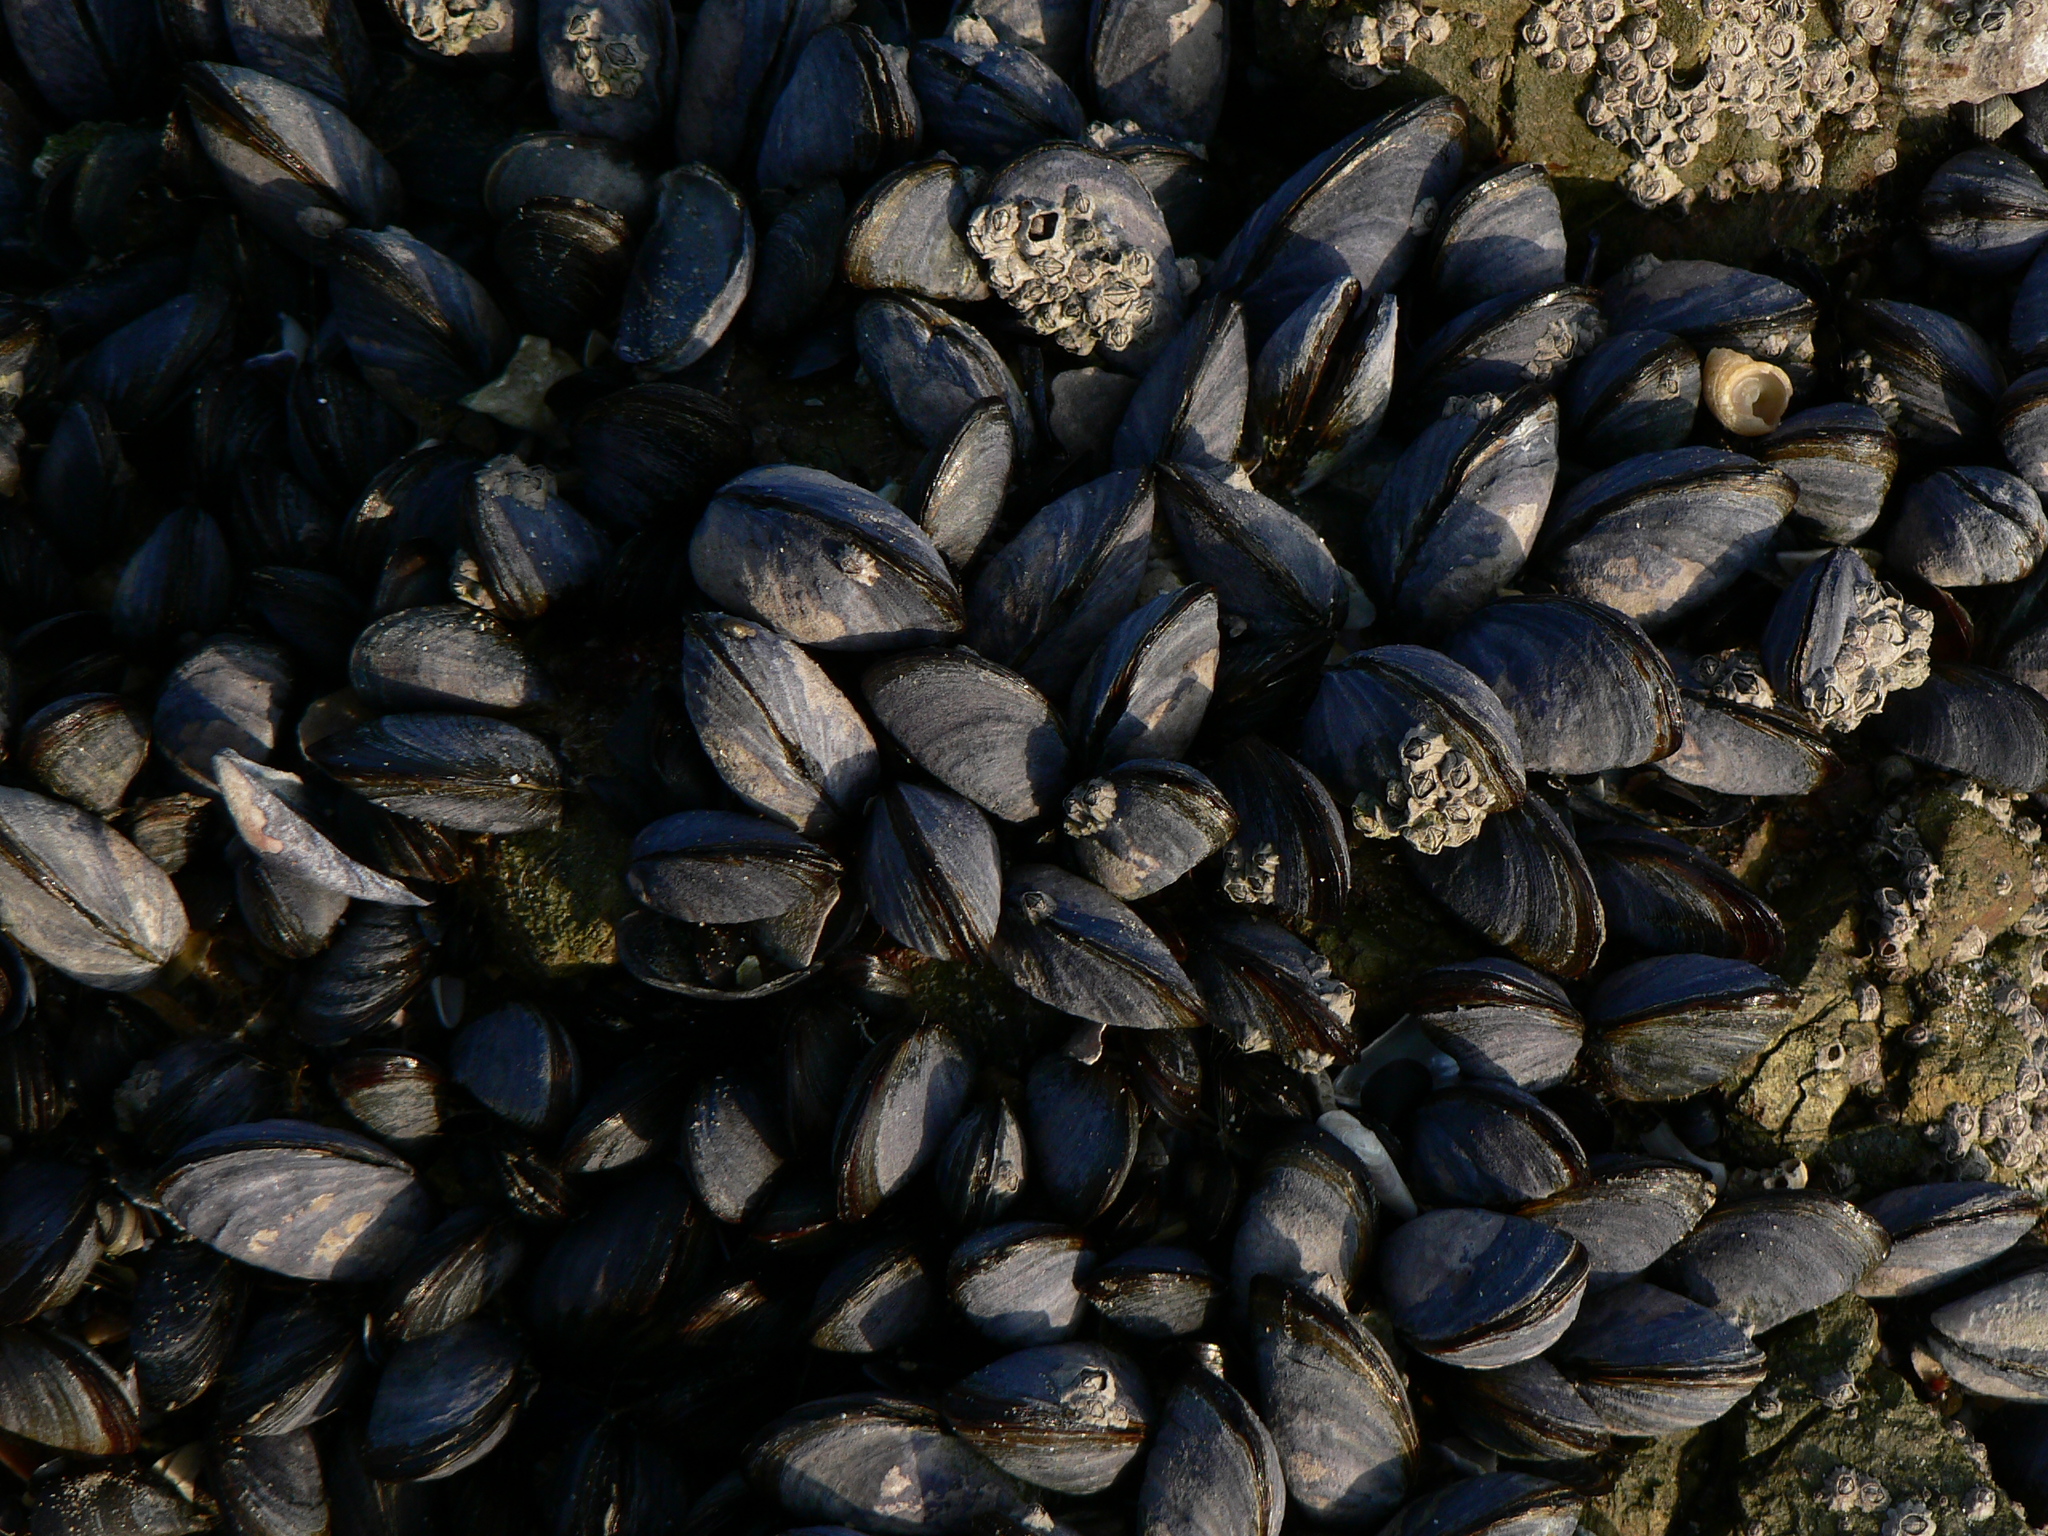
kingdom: Animalia
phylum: Mollusca
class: Bivalvia
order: Mytilida
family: Mytilidae
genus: Mytilus
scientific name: Mytilus edulis
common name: Blue mussel
